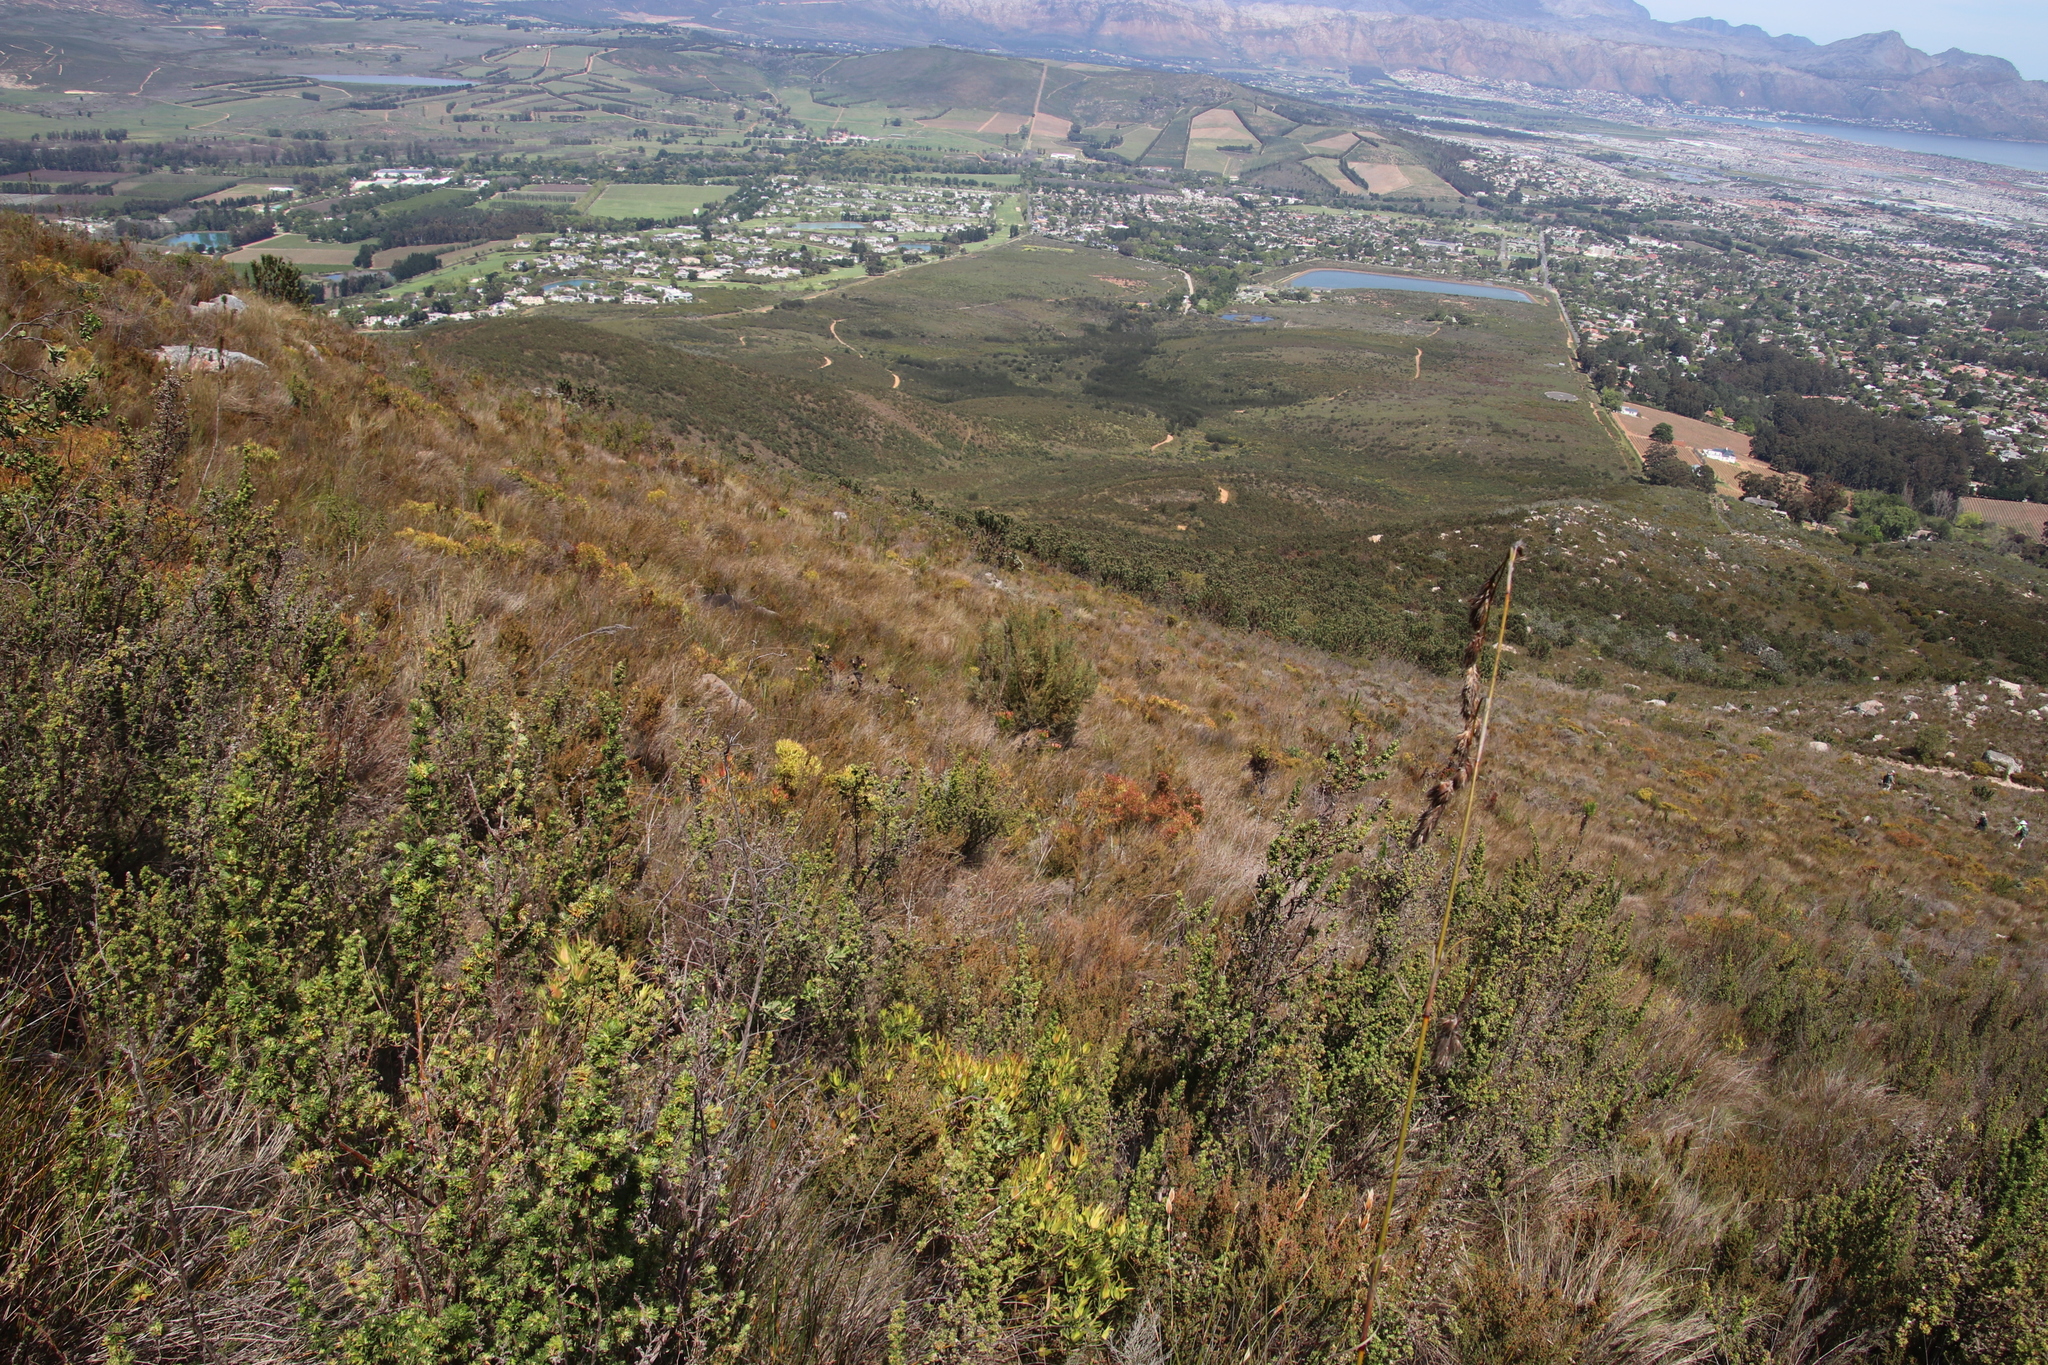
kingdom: Plantae
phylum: Tracheophyta
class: Magnoliopsida
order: Proteales
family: Proteaceae
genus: Leucadendron
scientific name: Leucadendron rubrum
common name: Spinning top
